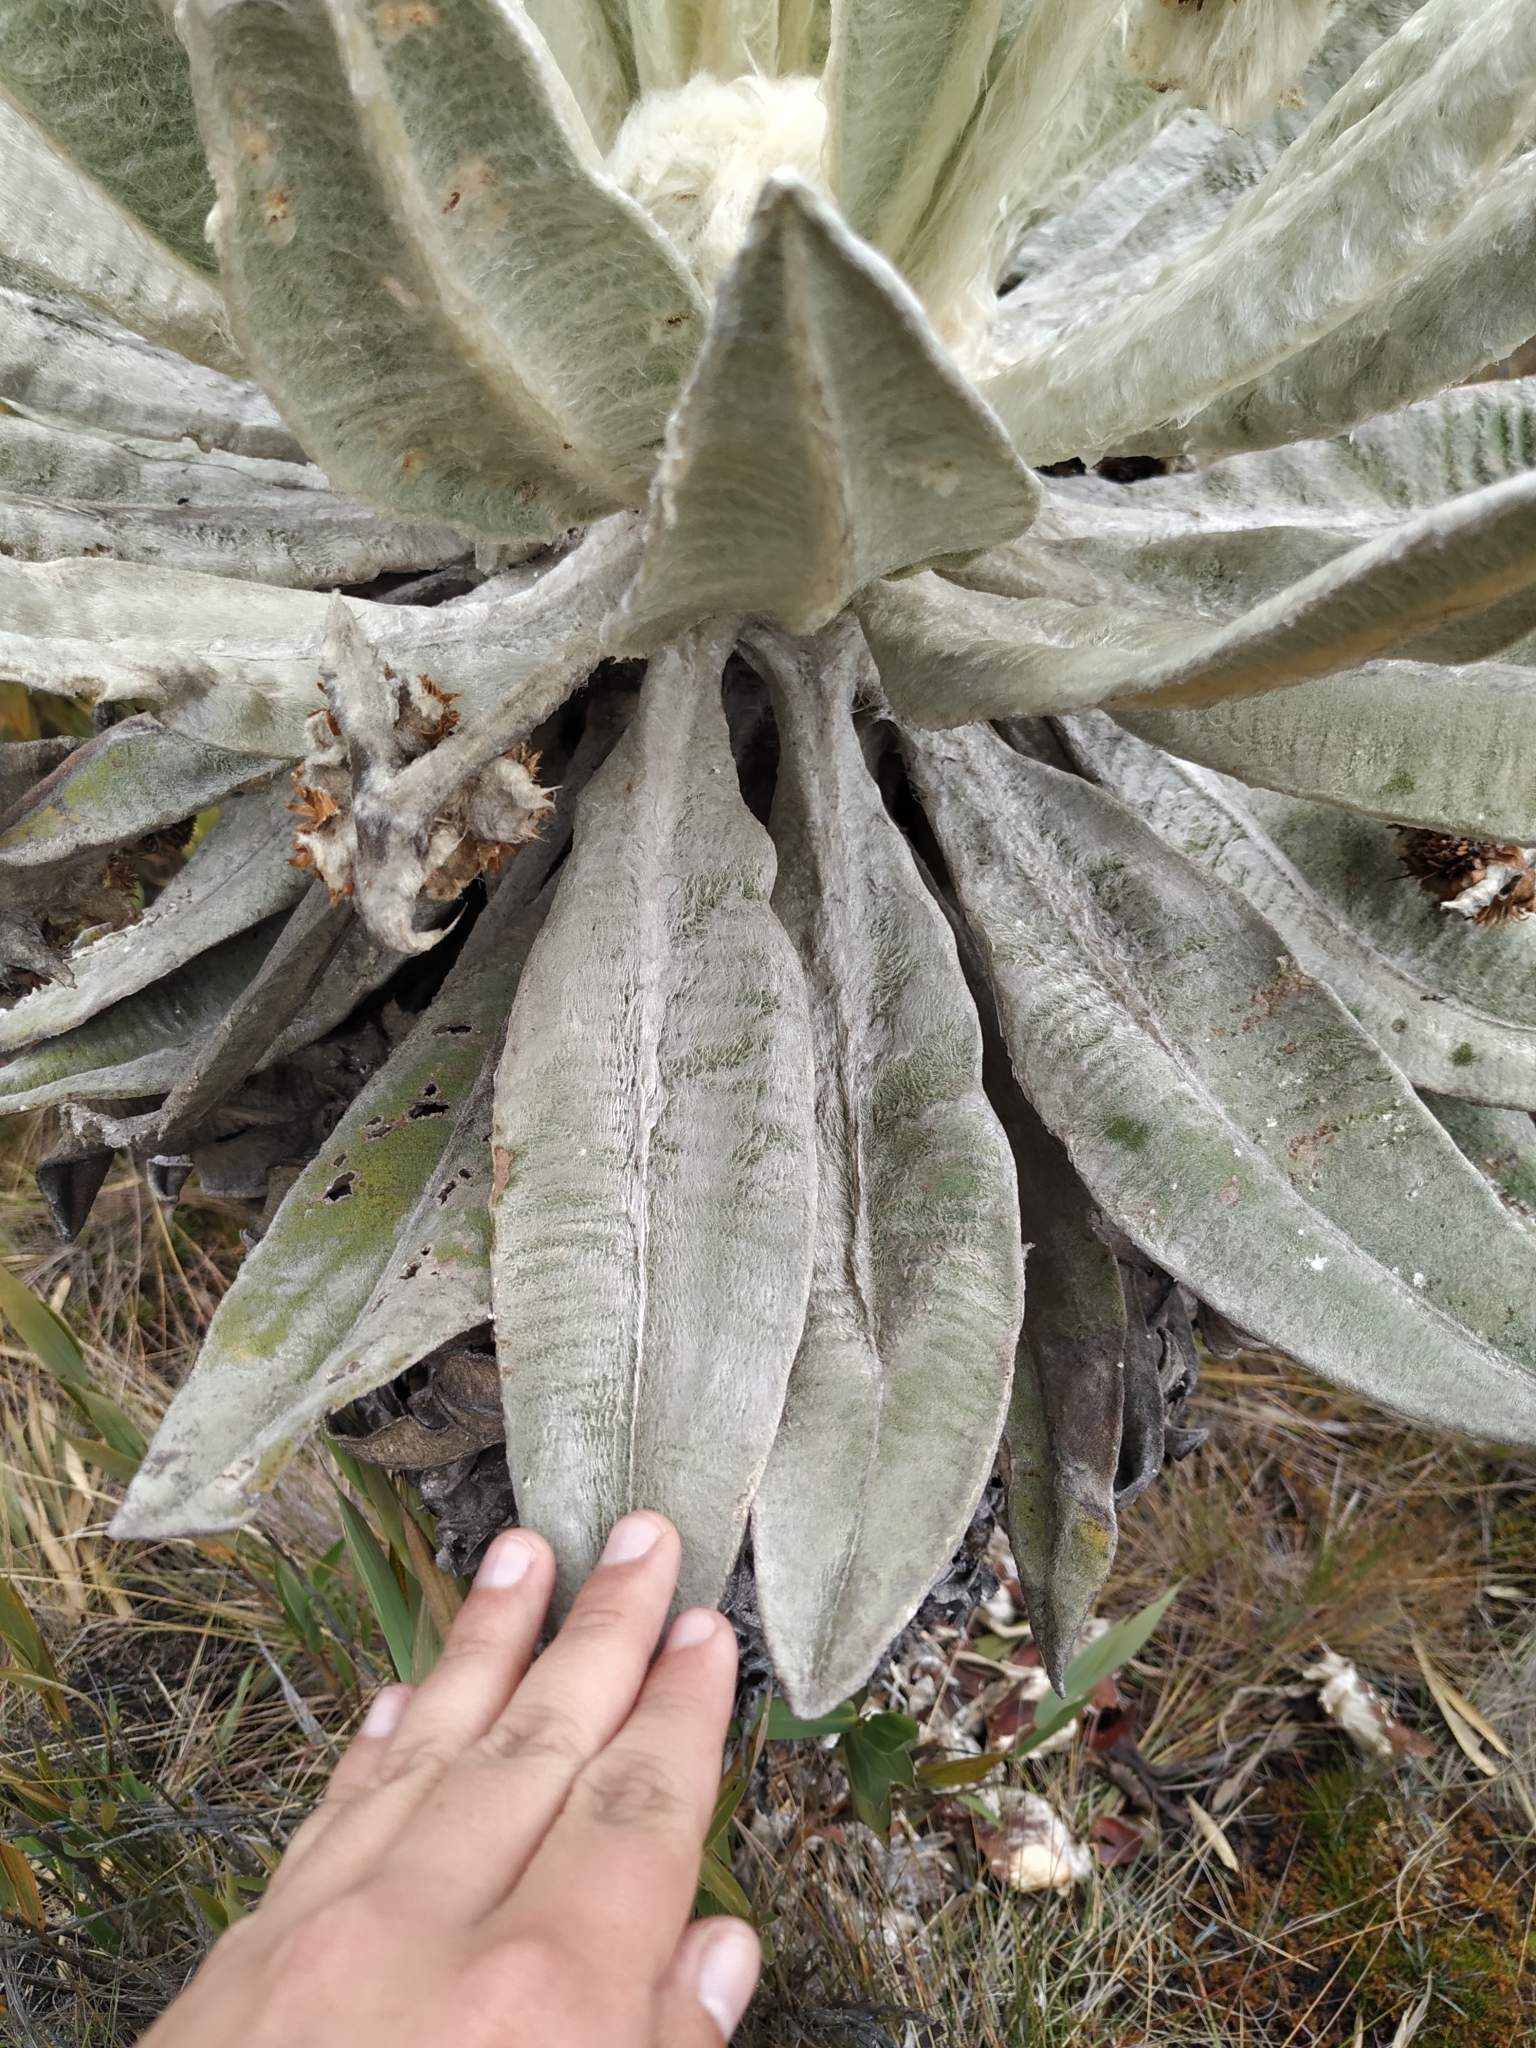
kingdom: Plantae
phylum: Tracheophyta
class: Magnoliopsida
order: Asterales
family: Asteraceae
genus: Espeletia
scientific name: Espeletia incana
